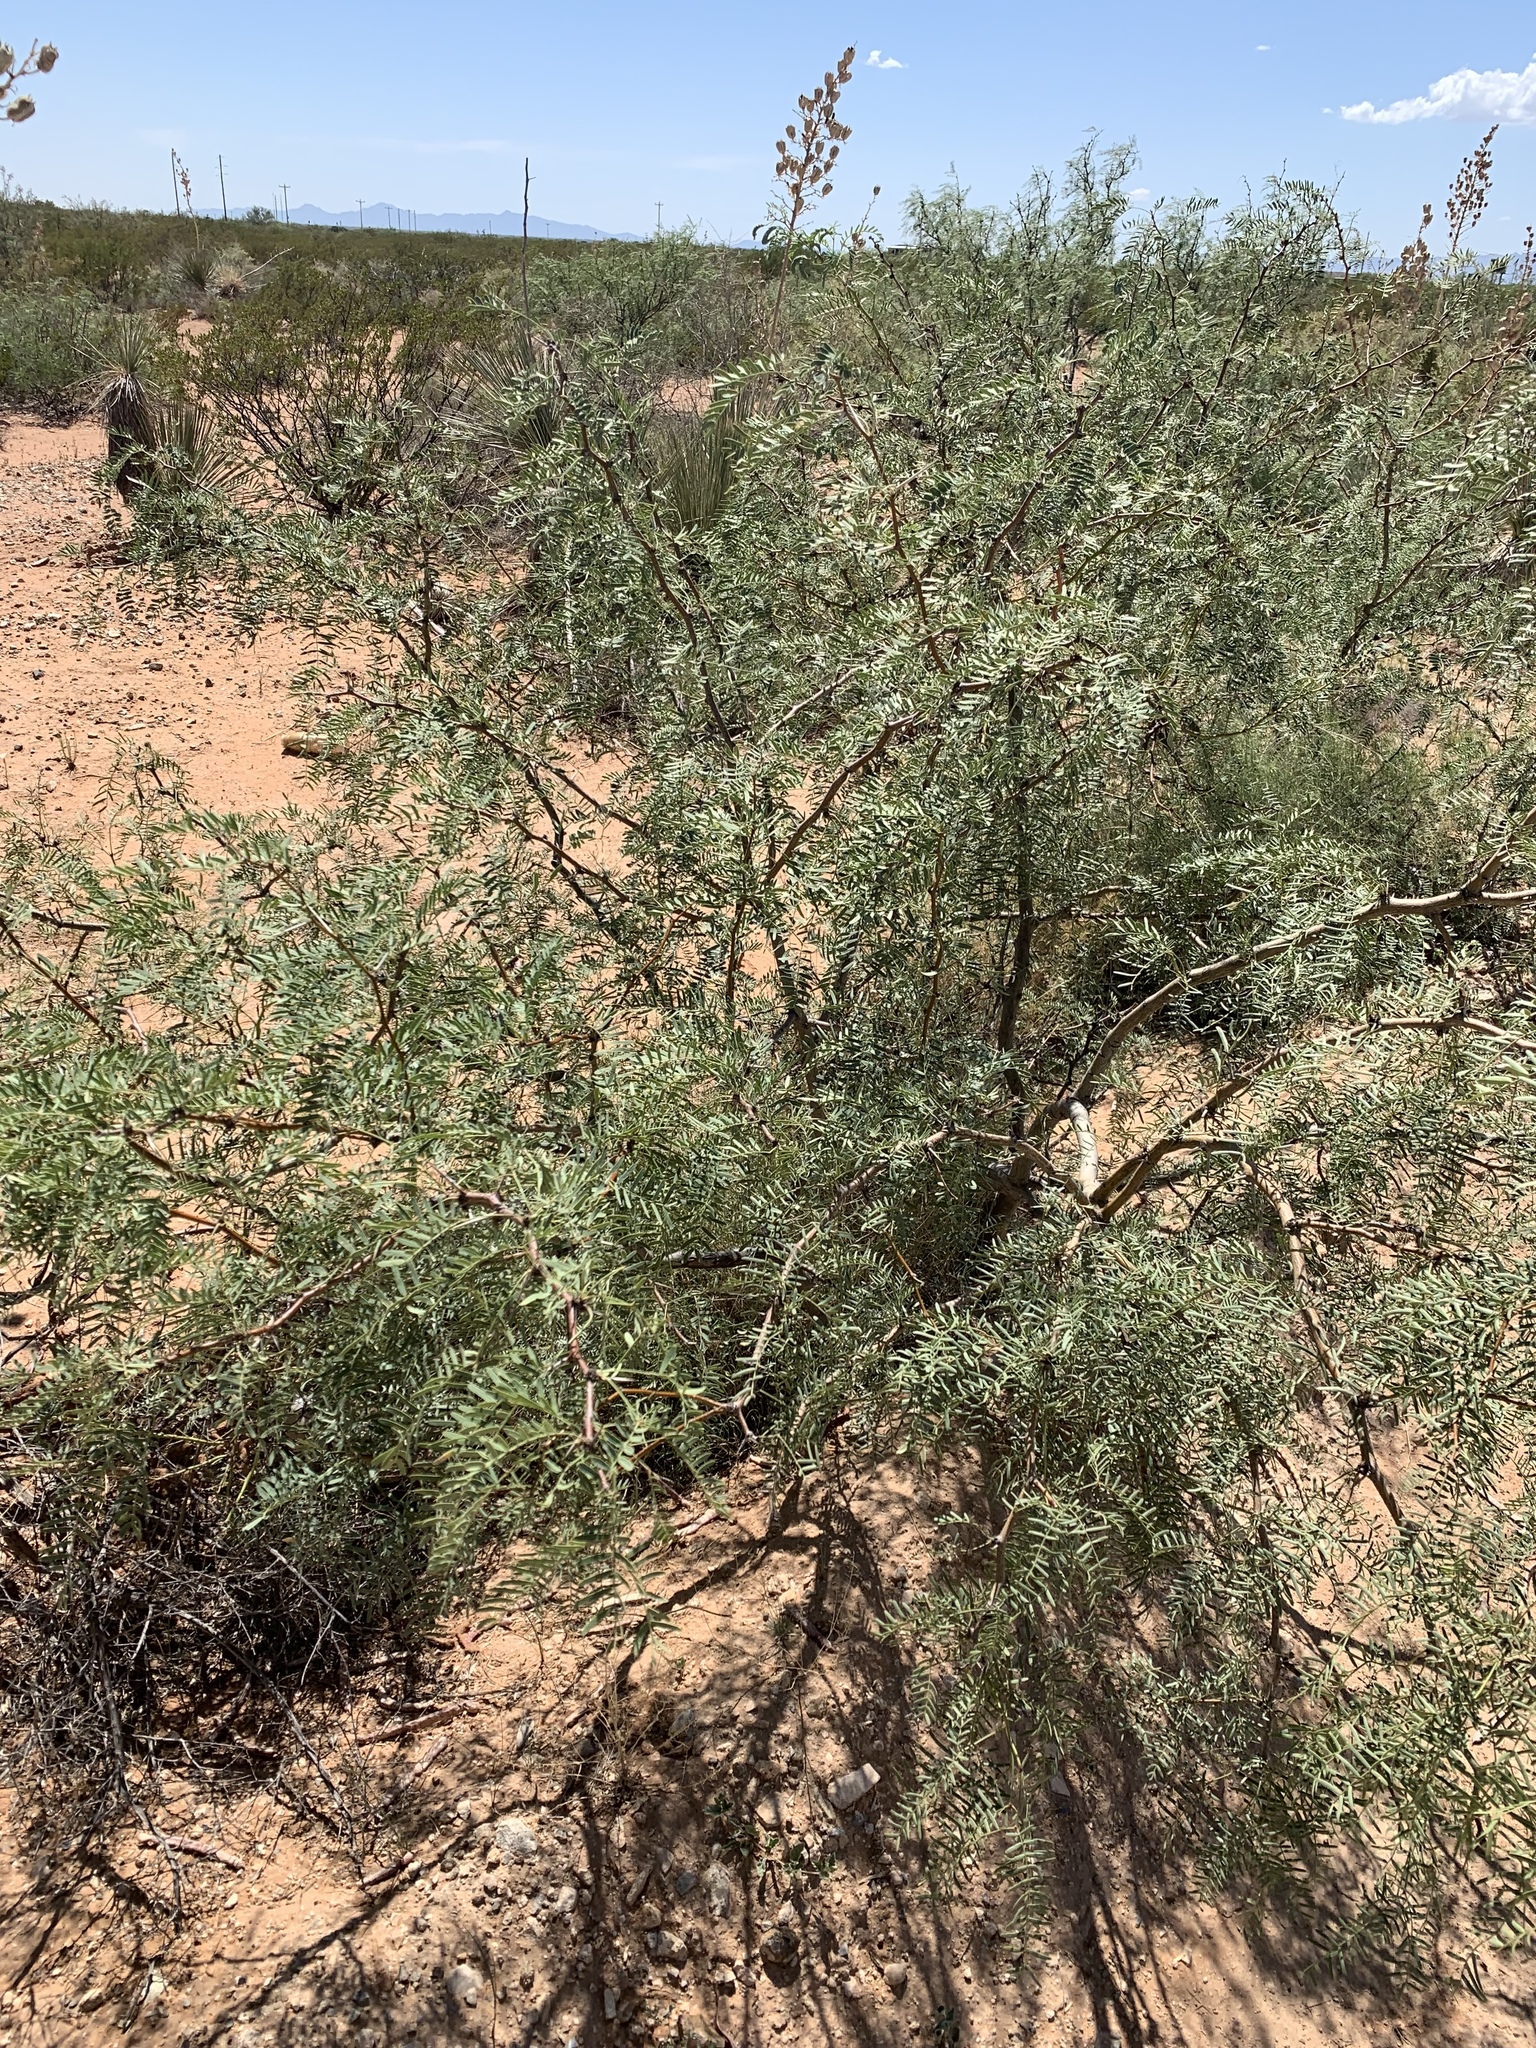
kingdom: Plantae
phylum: Tracheophyta
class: Magnoliopsida
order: Fabales
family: Fabaceae
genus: Prosopis
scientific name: Prosopis glandulosa
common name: Honey mesquite
